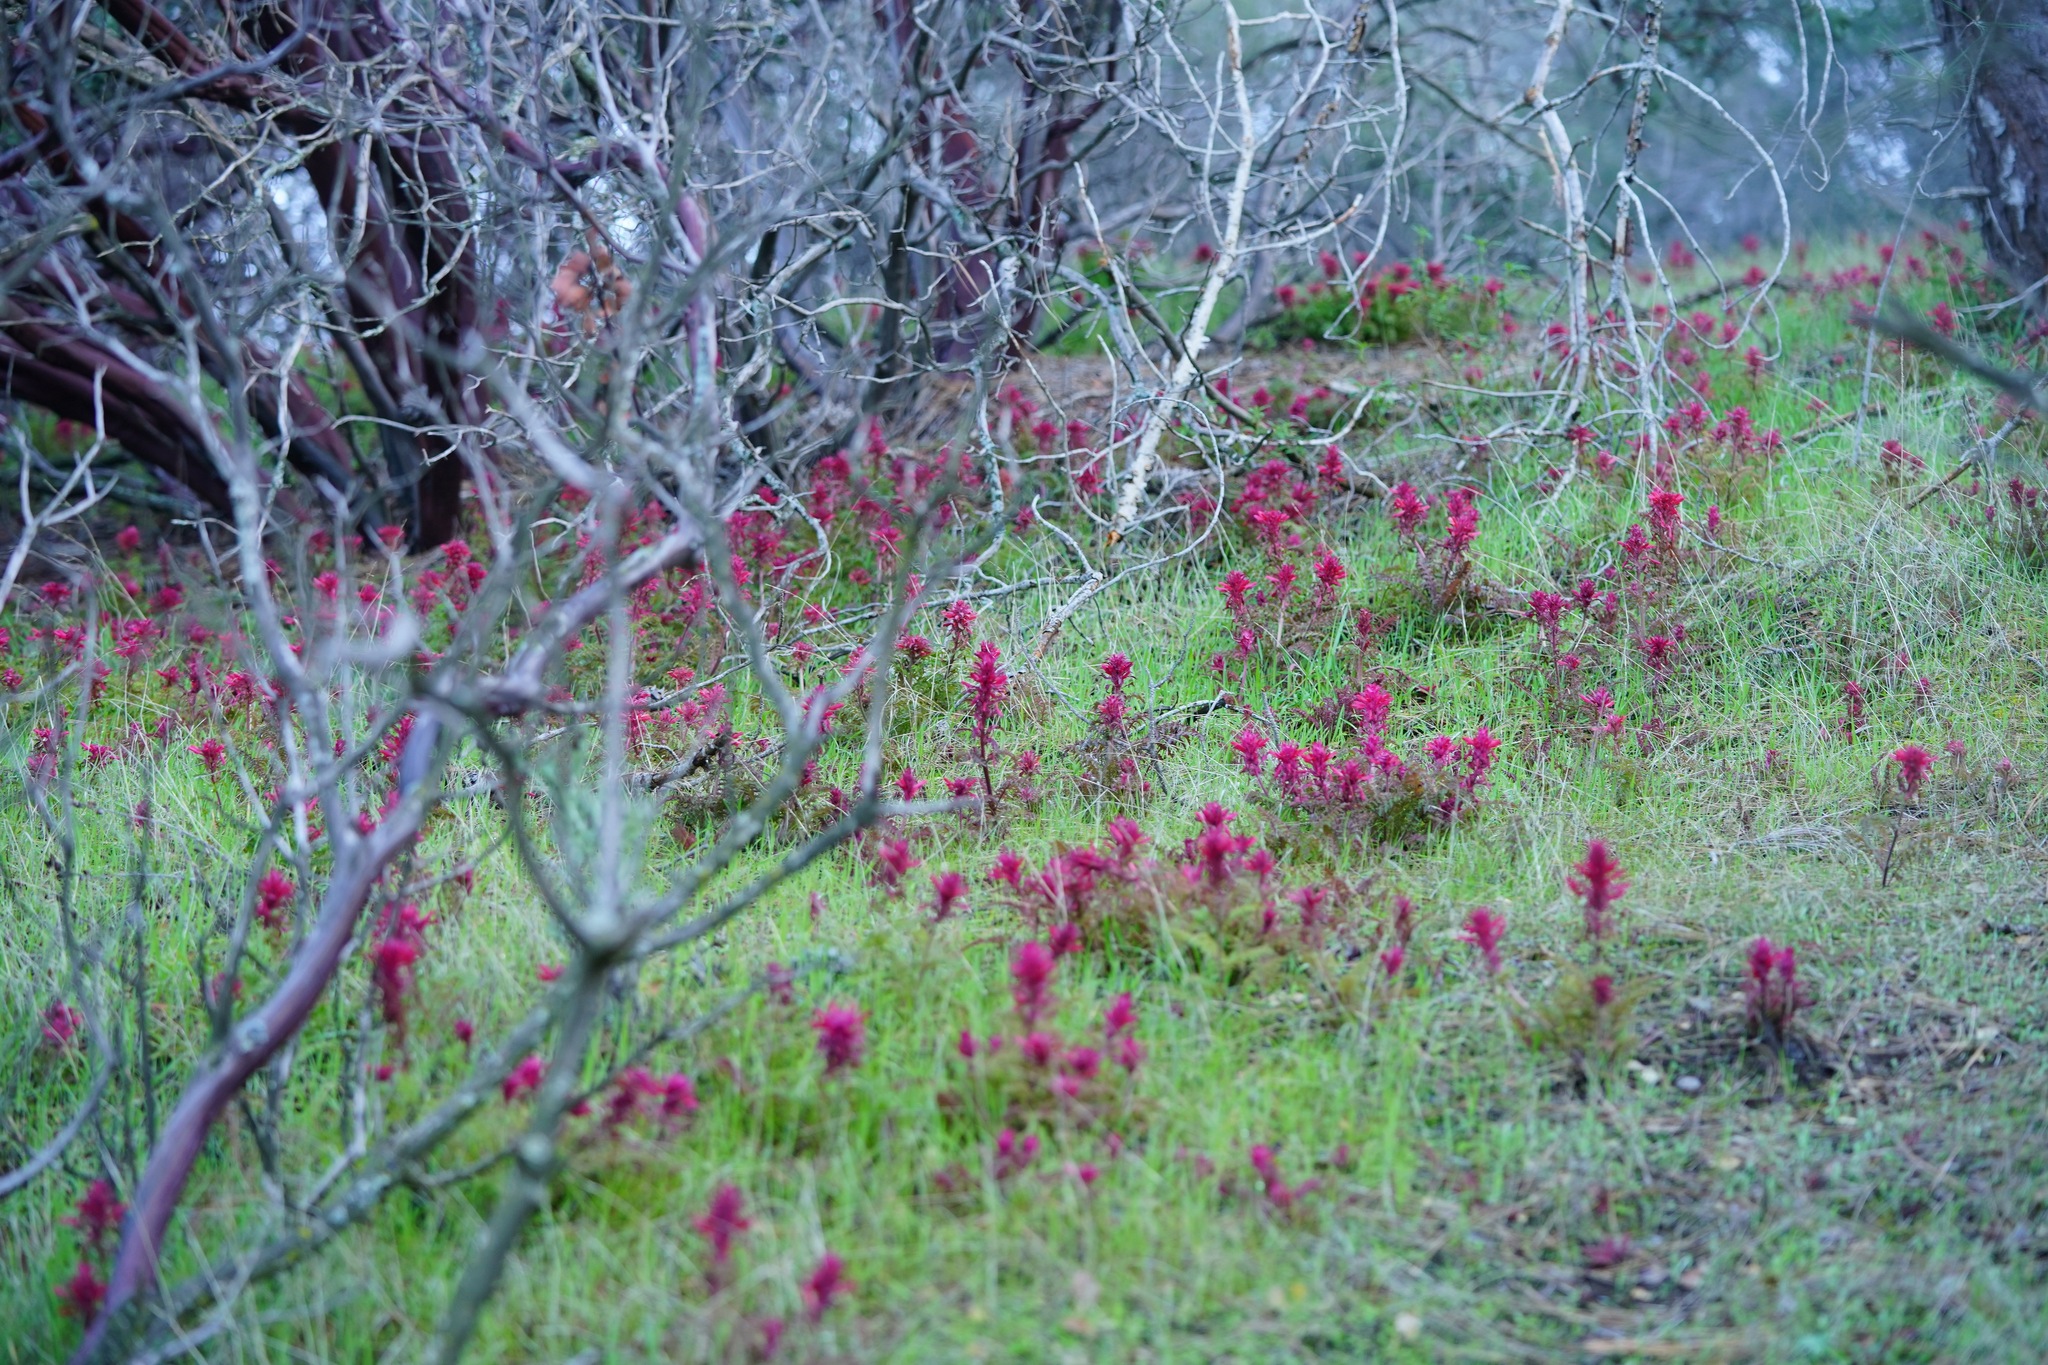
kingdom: Plantae
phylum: Tracheophyta
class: Magnoliopsida
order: Lamiales
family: Orobanchaceae
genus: Pedicularis
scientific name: Pedicularis densiflora
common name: Indian warrior
